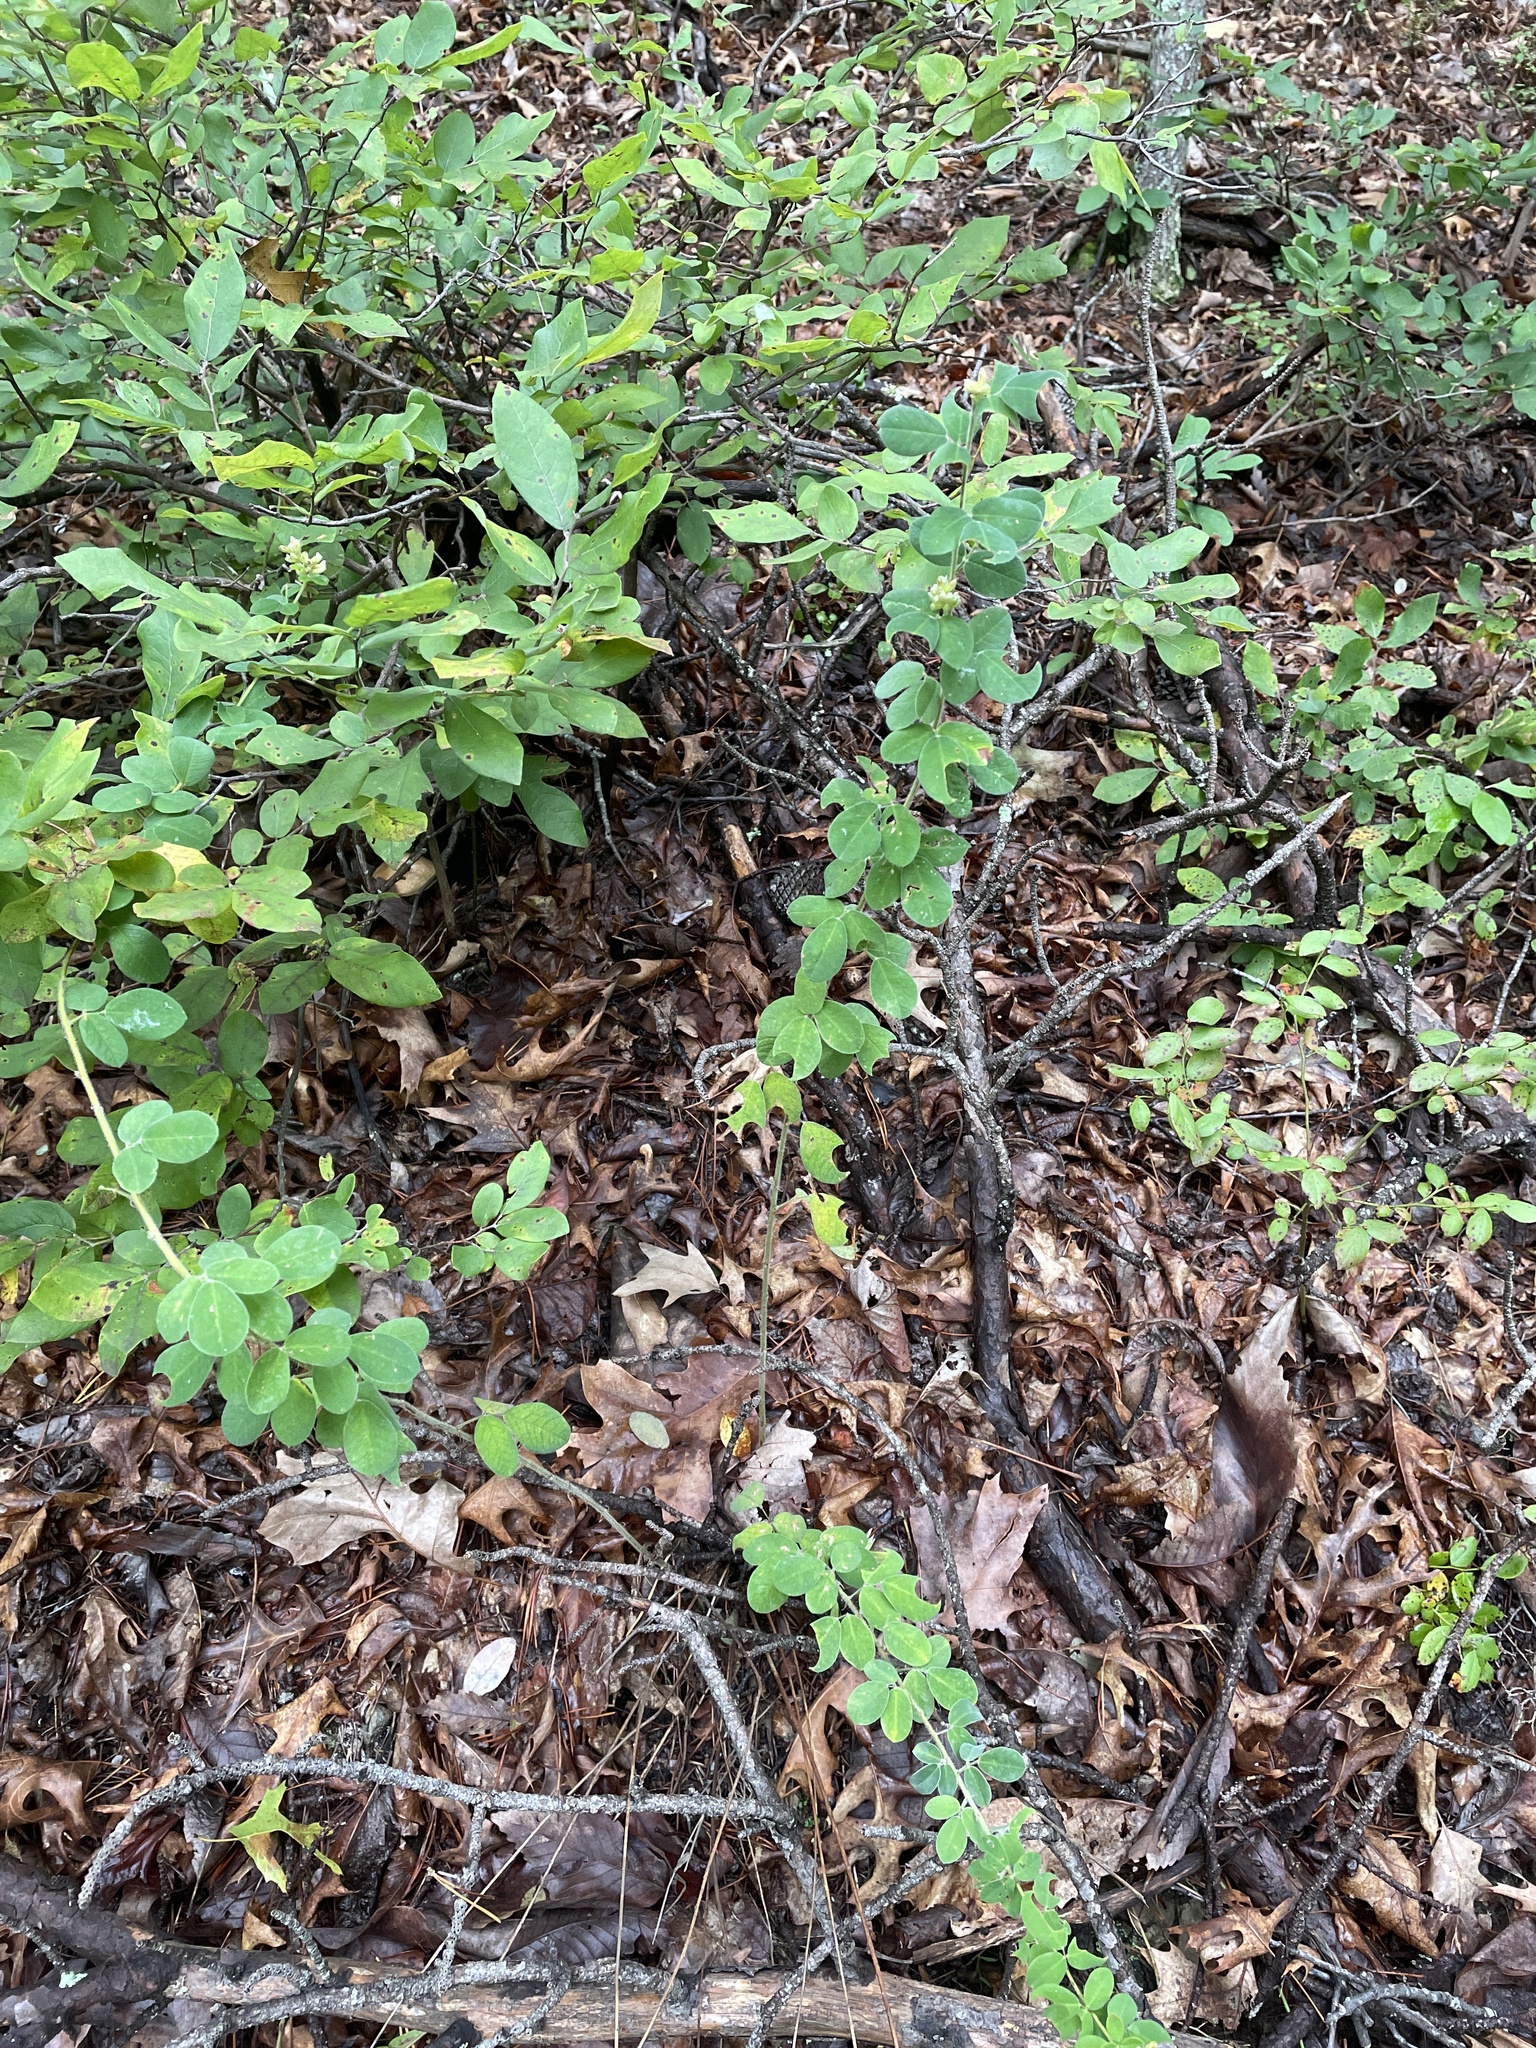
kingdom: Plantae
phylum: Tracheophyta
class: Magnoliopsida
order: Fabales
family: Fabaceae
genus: Lespedeza
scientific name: Lespedeza hirta
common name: Hairy lespedeza
